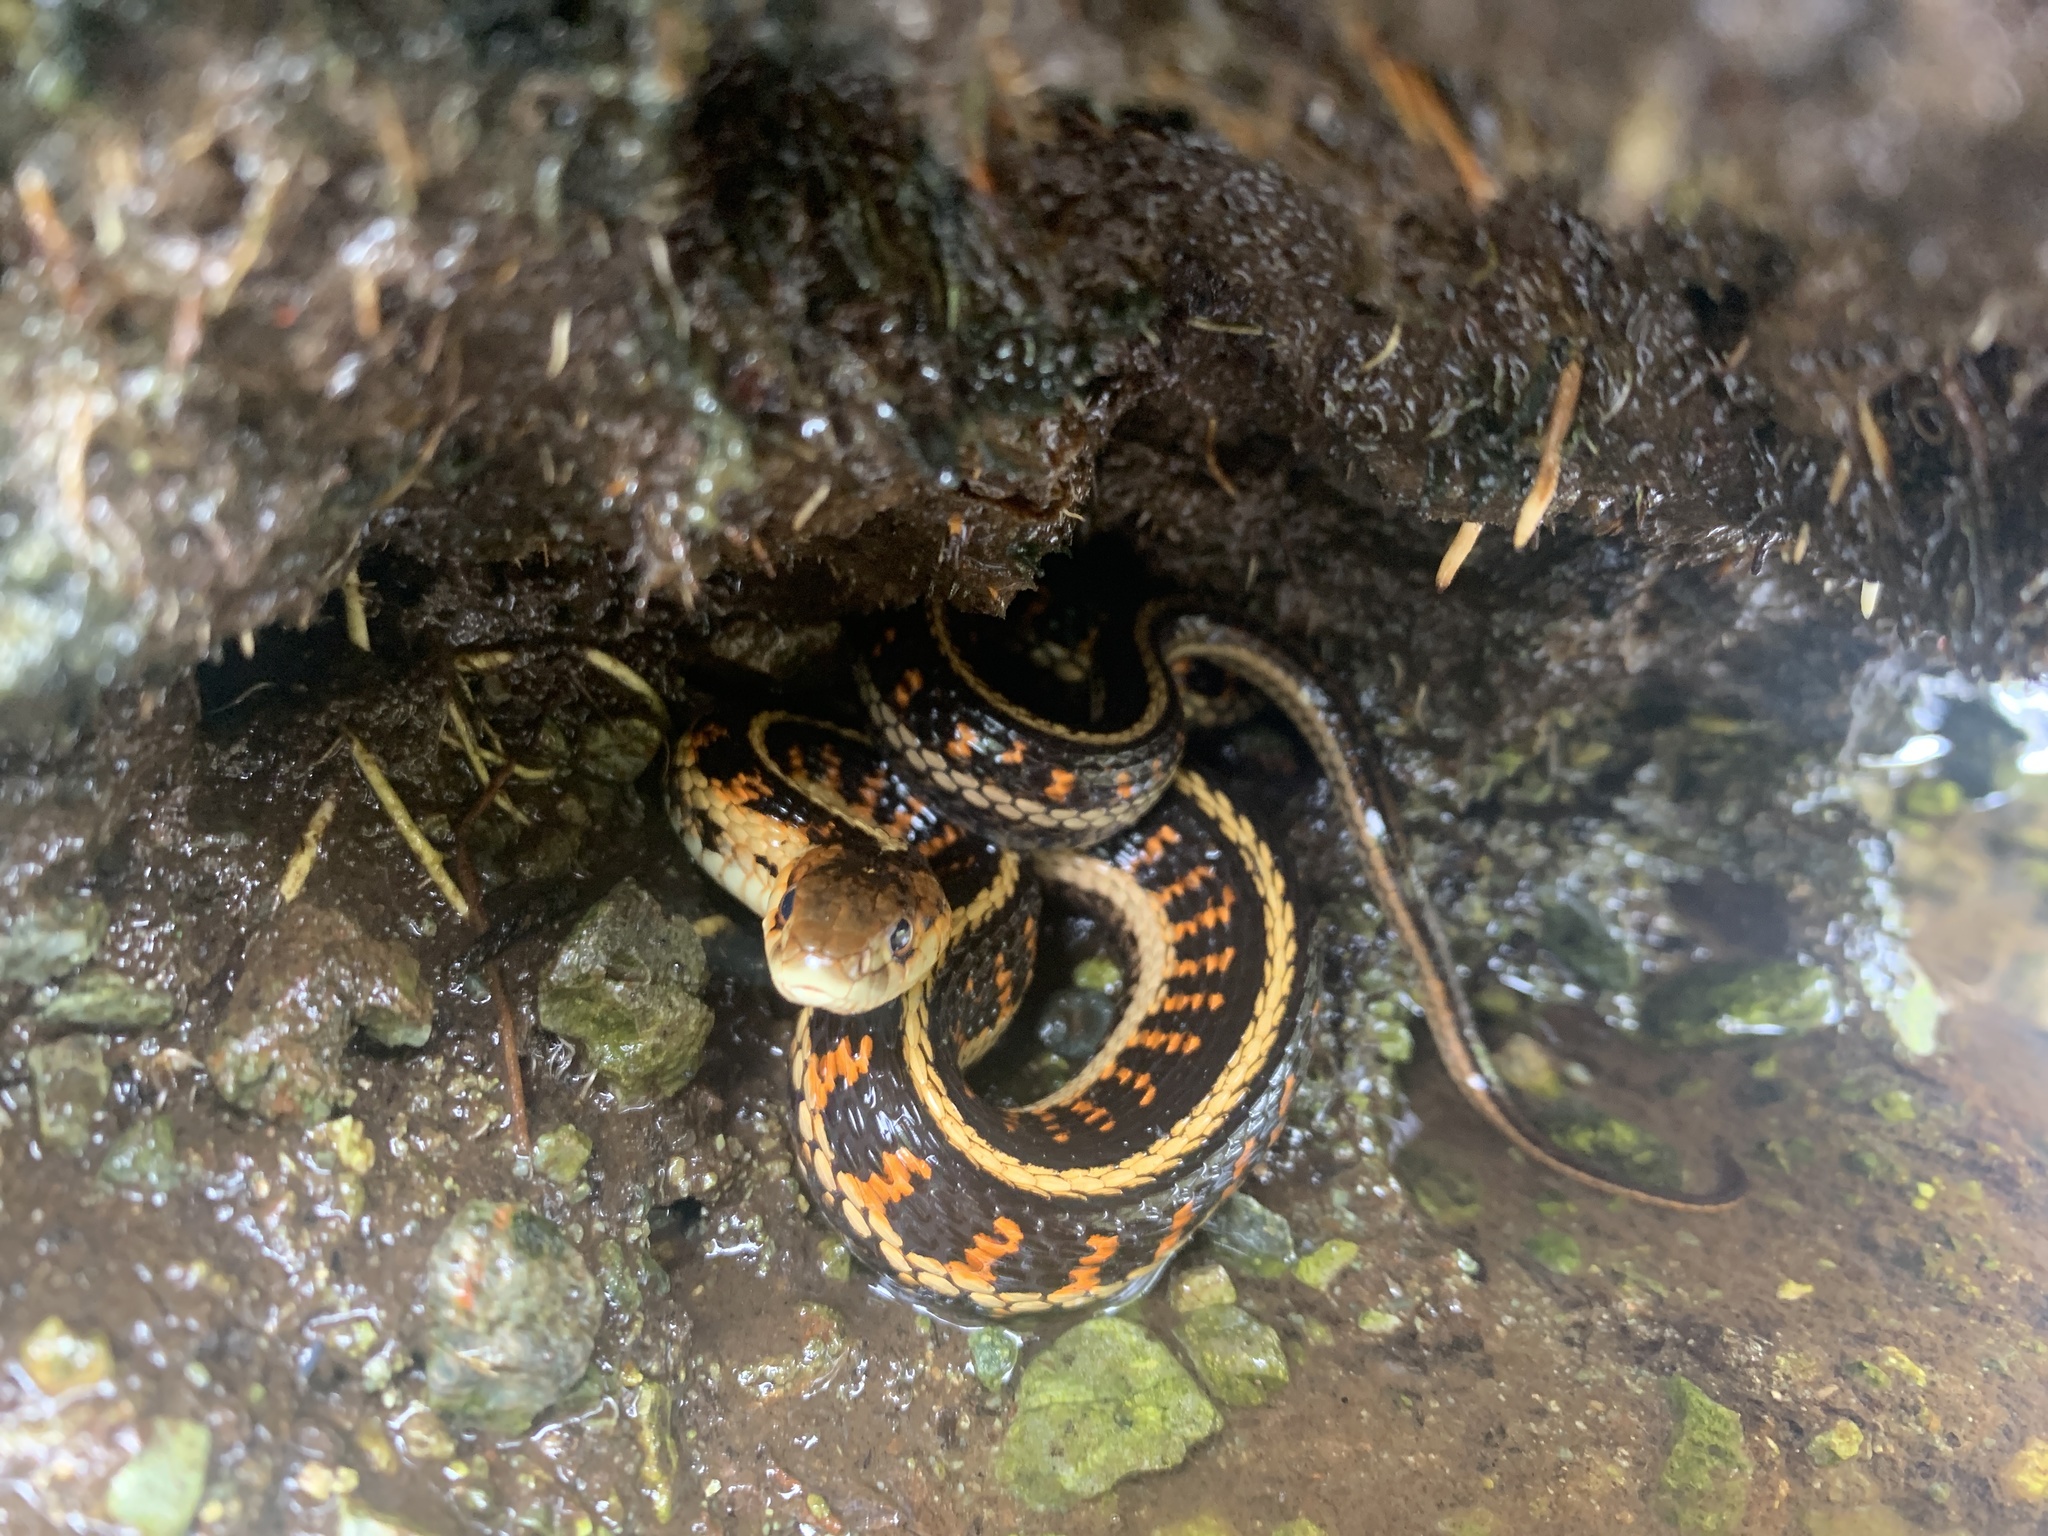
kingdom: Animalia
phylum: Chordata
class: Squamata
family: Colubridae
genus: Thamnophis
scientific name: Thamnophis sirtalis
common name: Common garter snake
